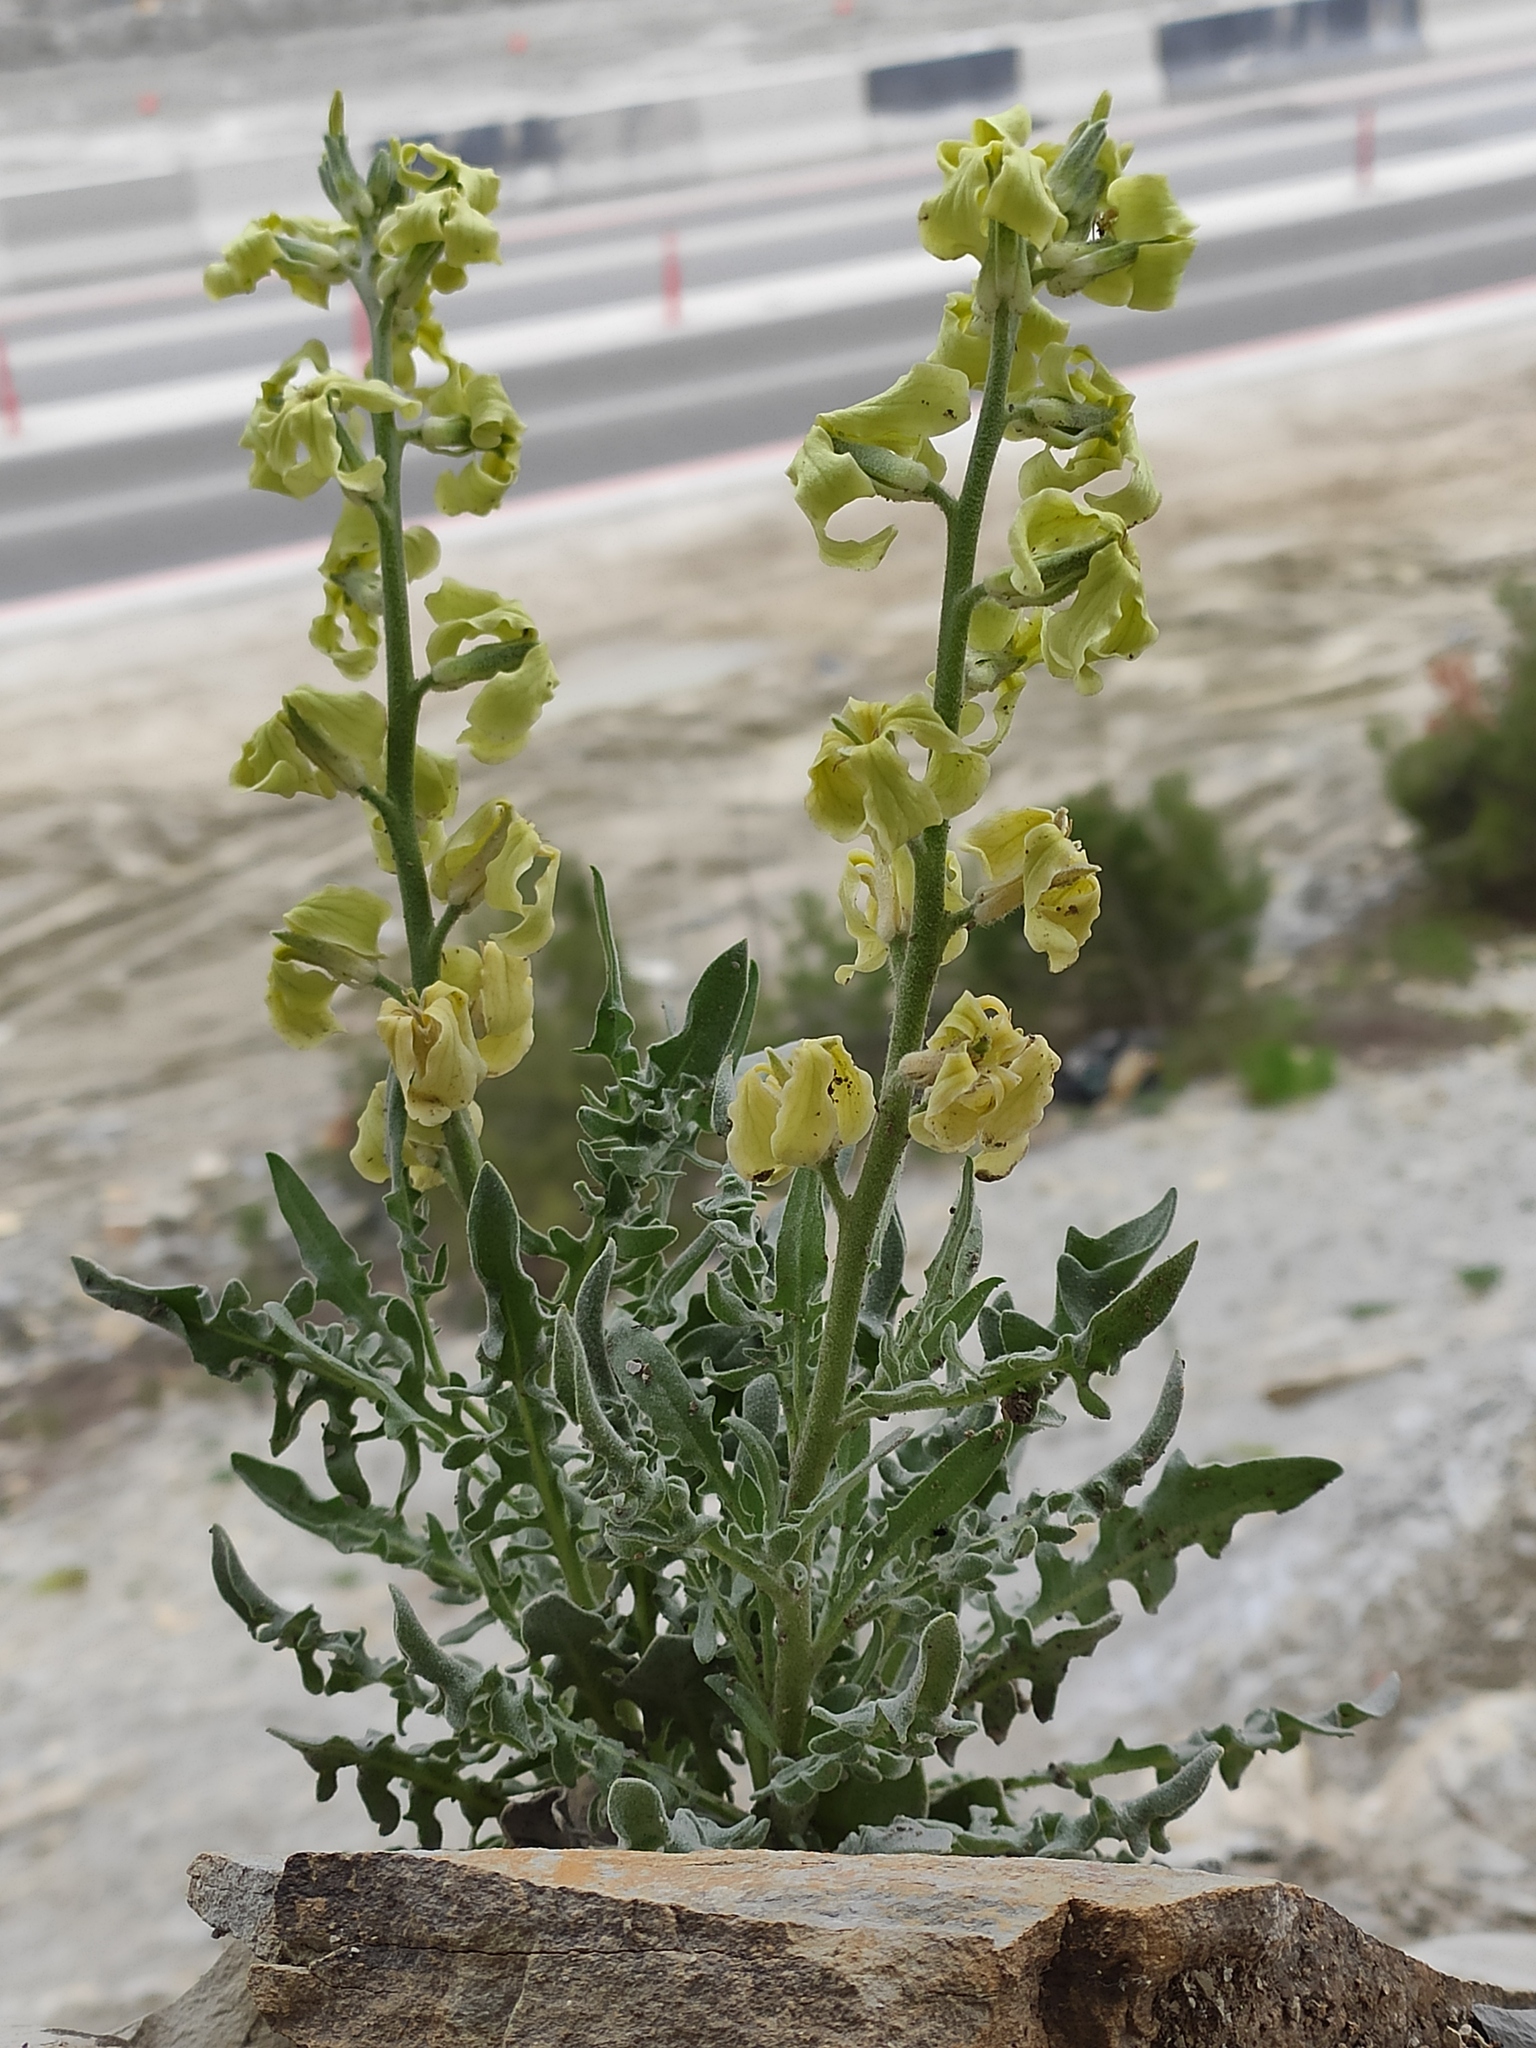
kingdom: Plantae
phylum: Tracheophyta
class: Magnoliopsida
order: Brassicales
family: Brassicaceae
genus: Matthiola
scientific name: Matthiola odoratissima
